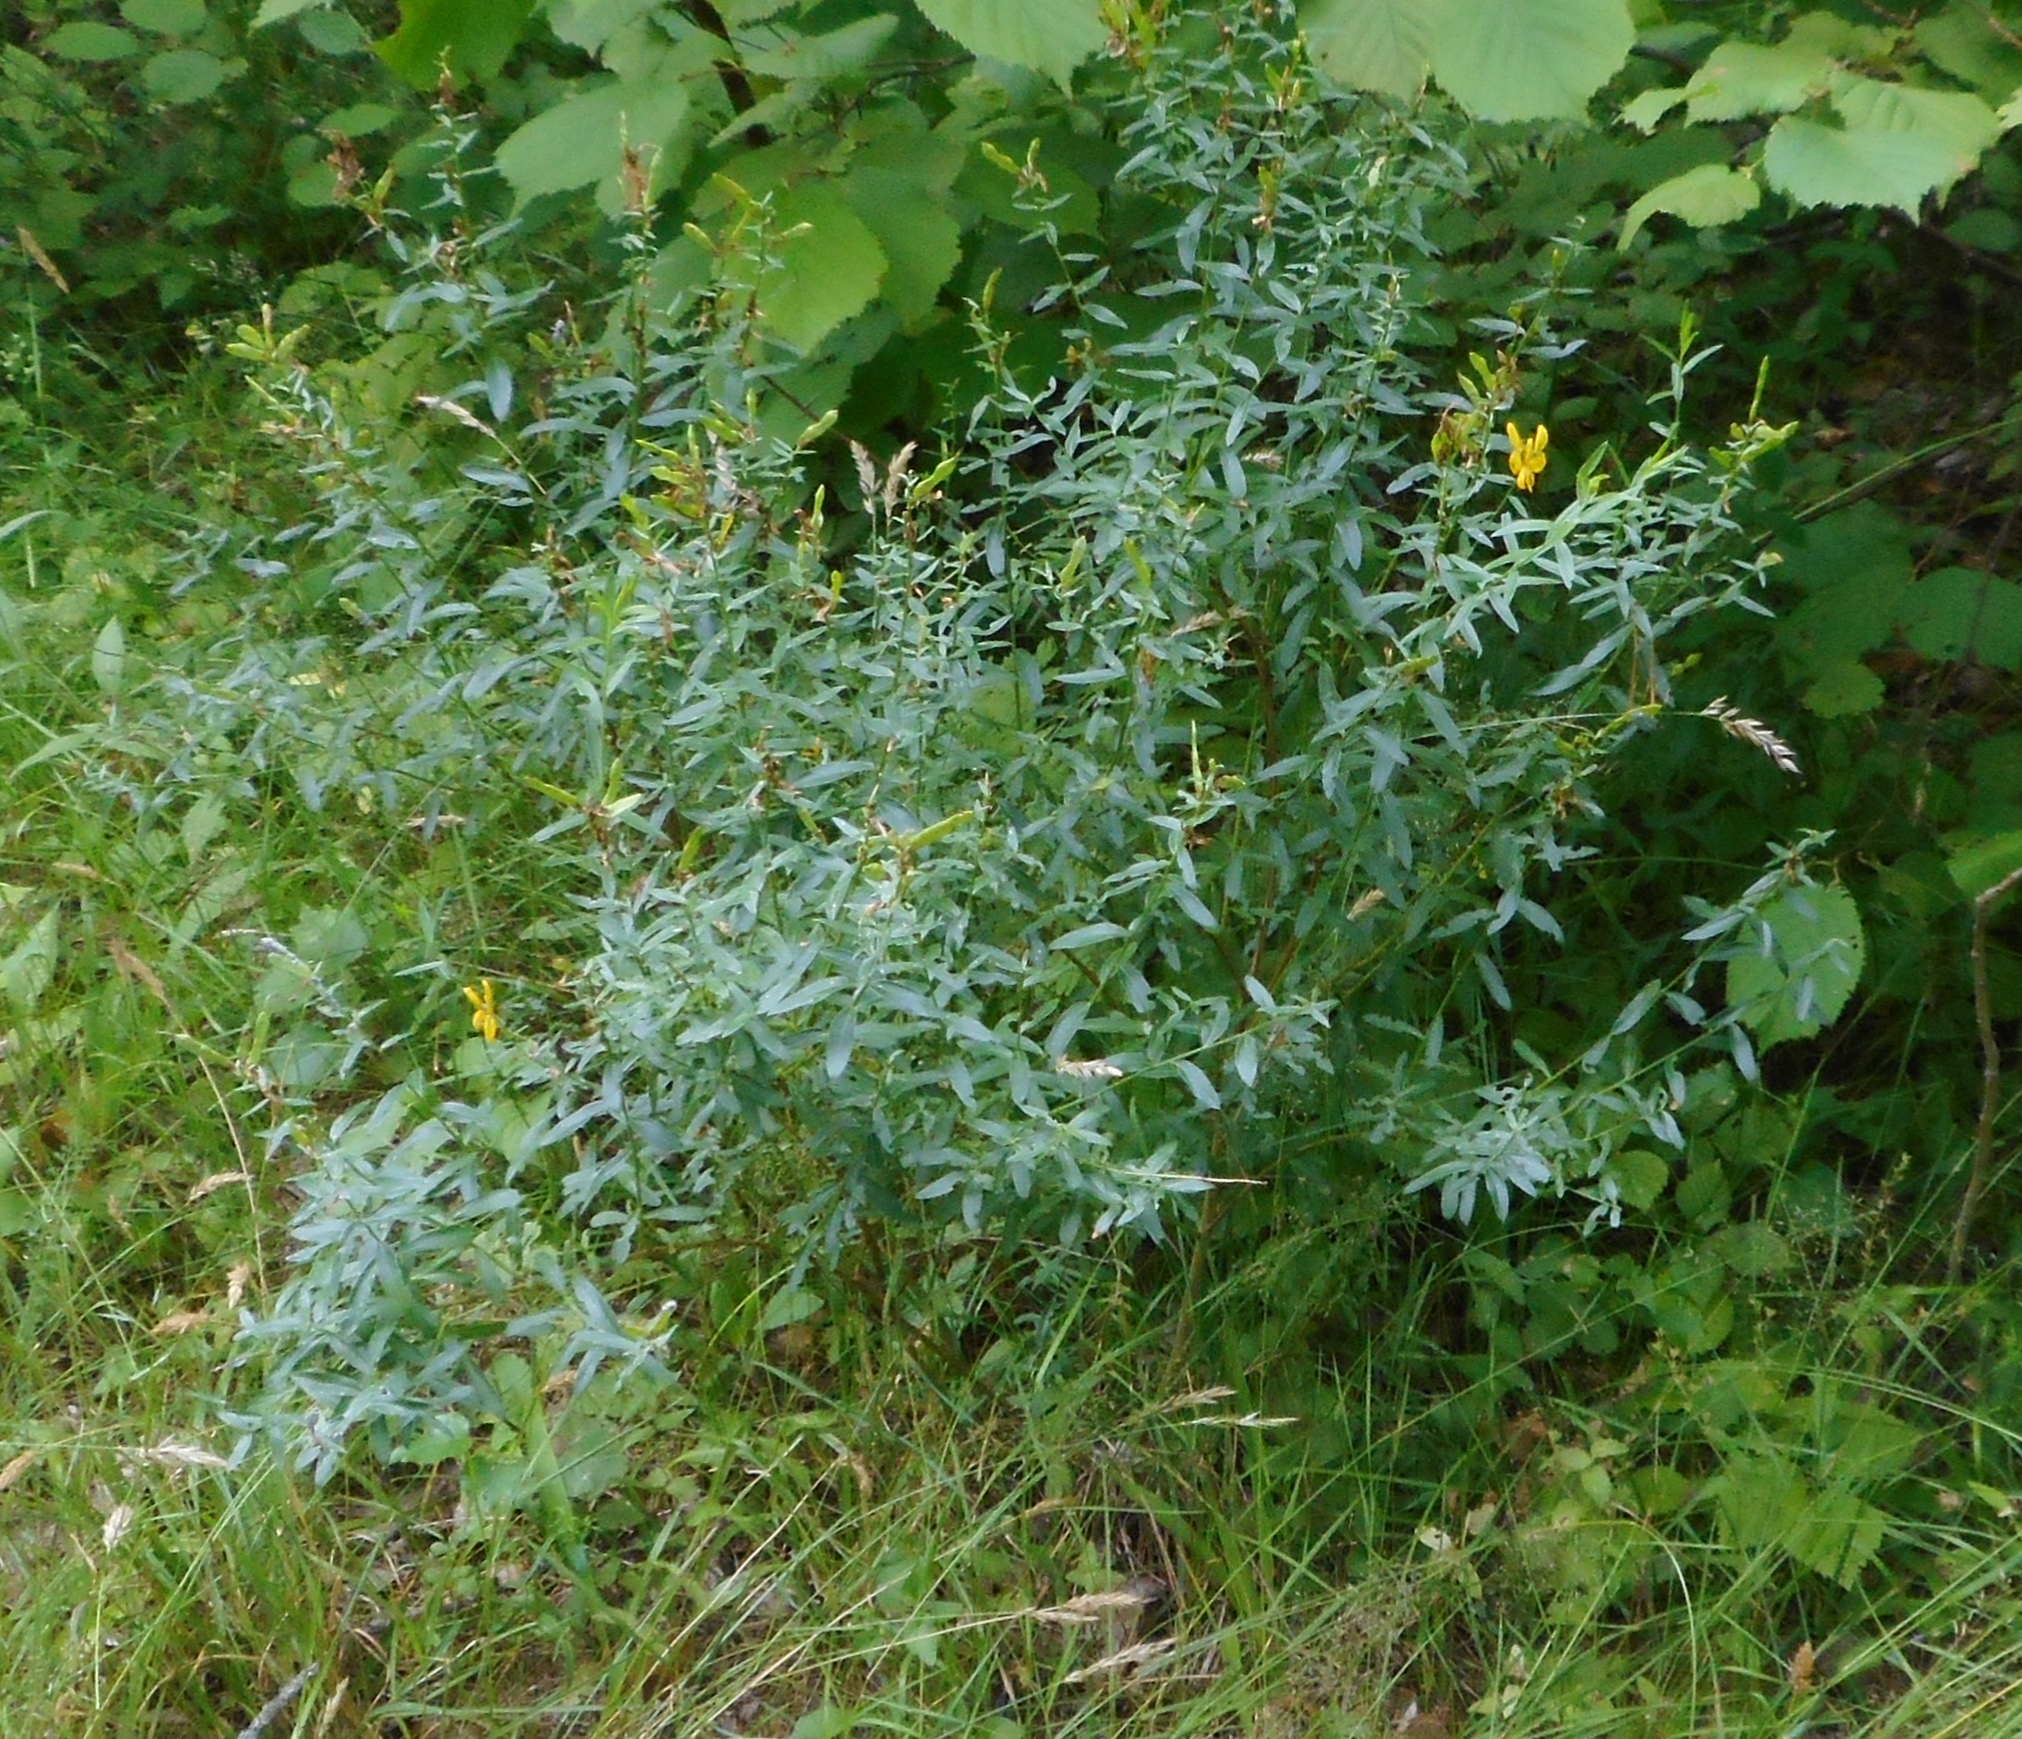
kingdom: Plantae
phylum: Tracheophyta
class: Magnoliopsida
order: Fabales
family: Fabaceae
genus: Genista
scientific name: Genista tinctoria
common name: Dyer's greenweed
